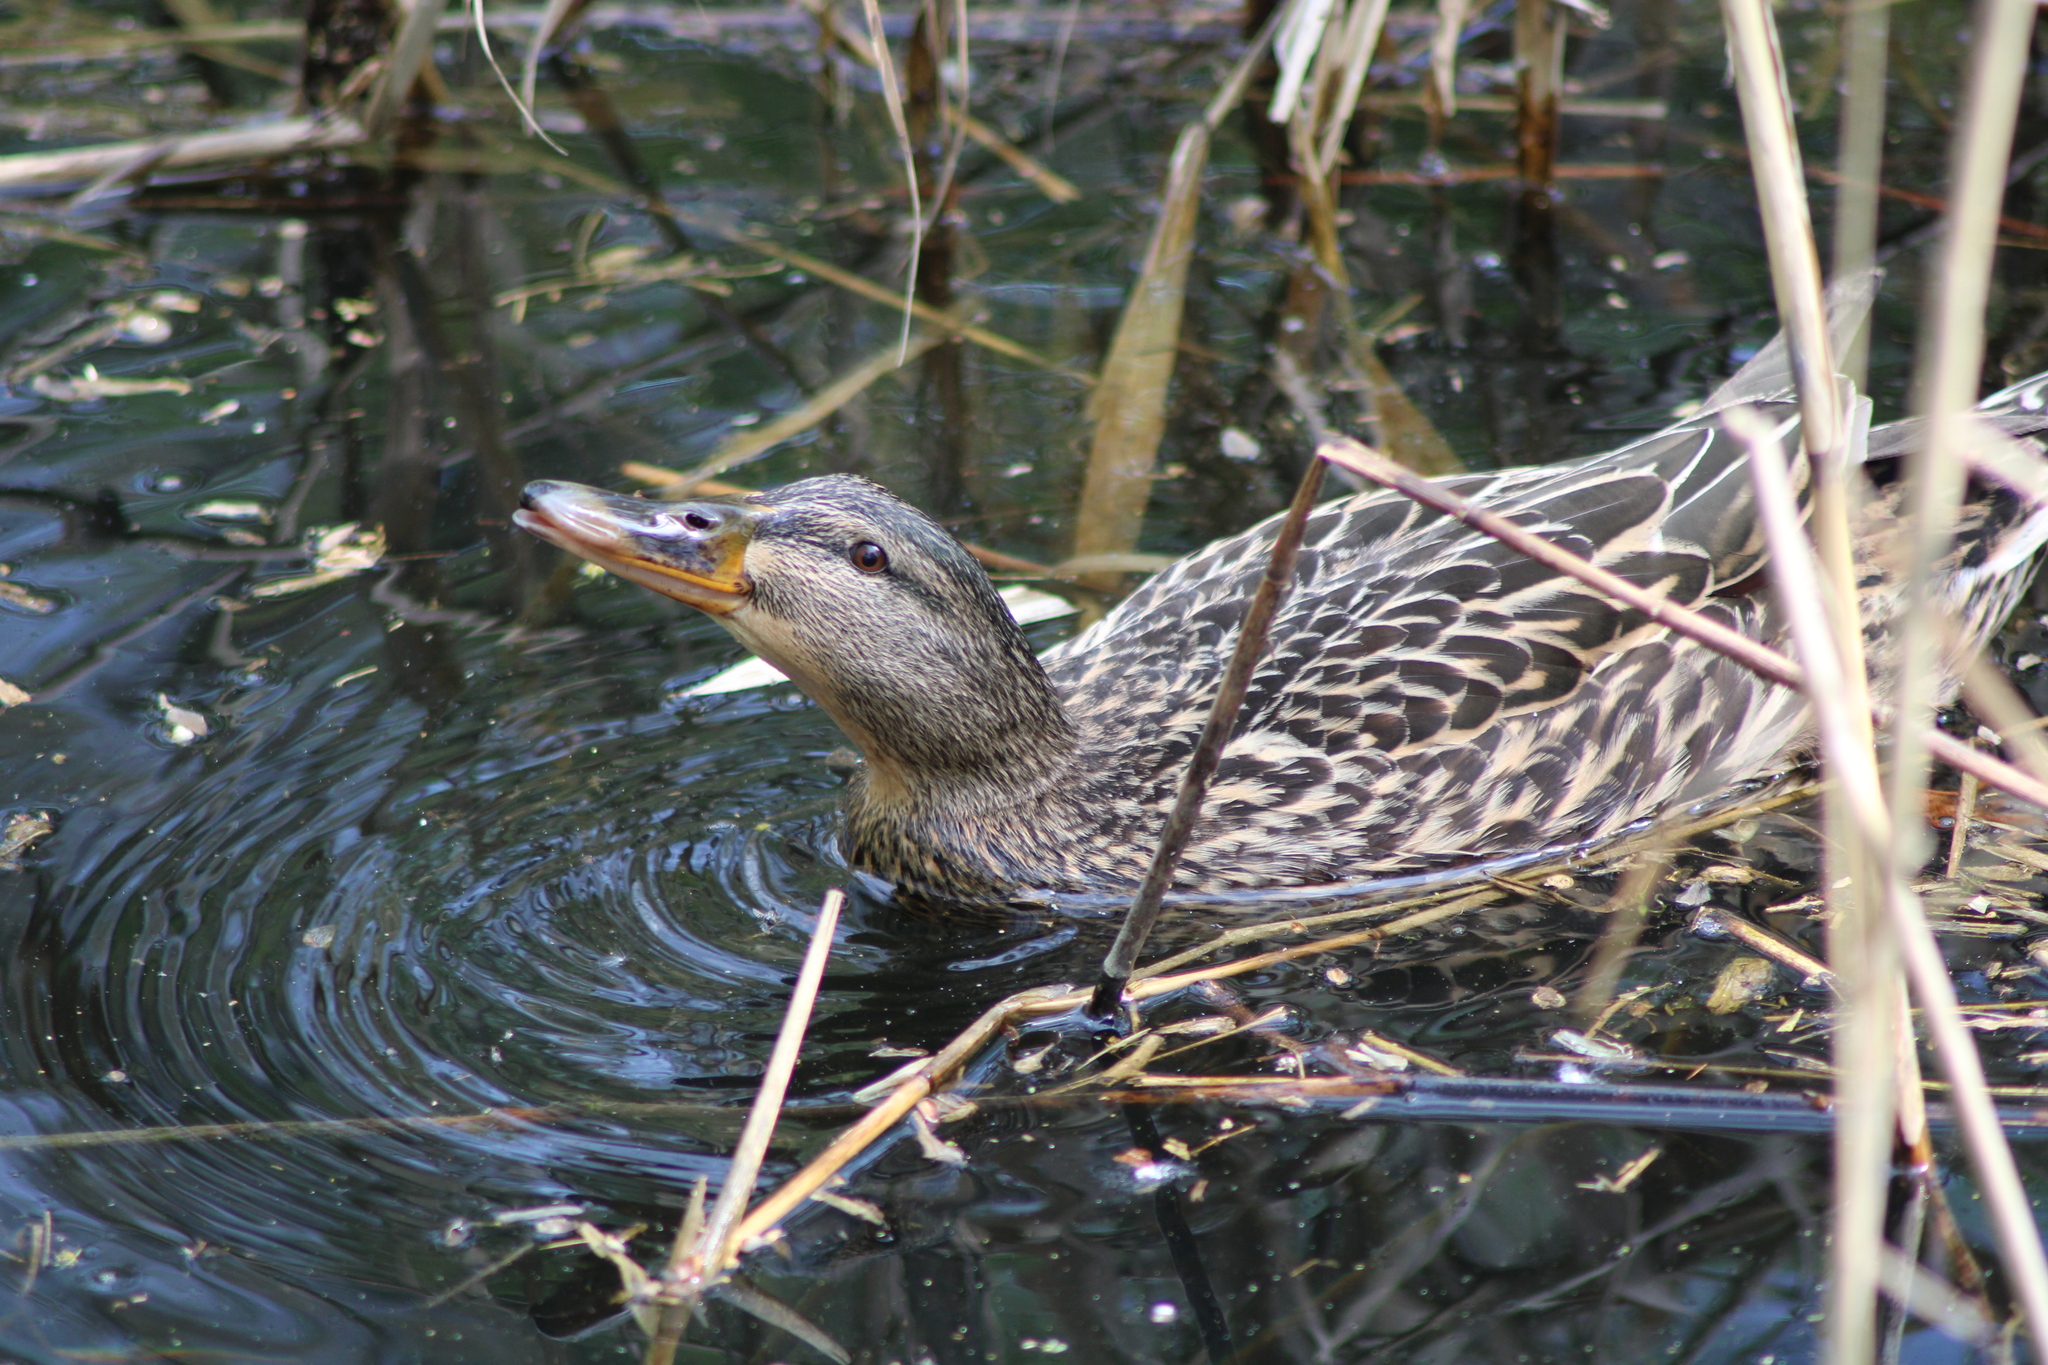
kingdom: Animalia
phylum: Chordata
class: Aves
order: Anseriformes
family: Anatidae
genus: Anas
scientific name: Anas platyrhynchos
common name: Mallard
